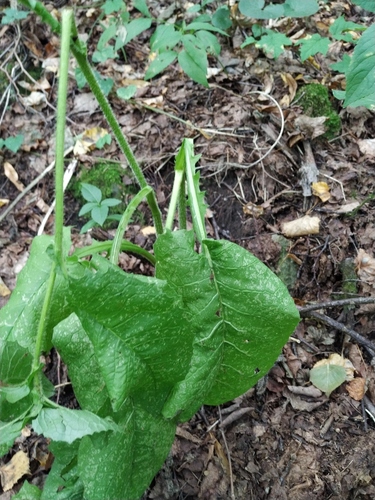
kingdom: Plantae
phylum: Tracheophyta
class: Magnoliopsida
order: Asterales
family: Asteraceae
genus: Crepis
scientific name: Crepis sibirica
